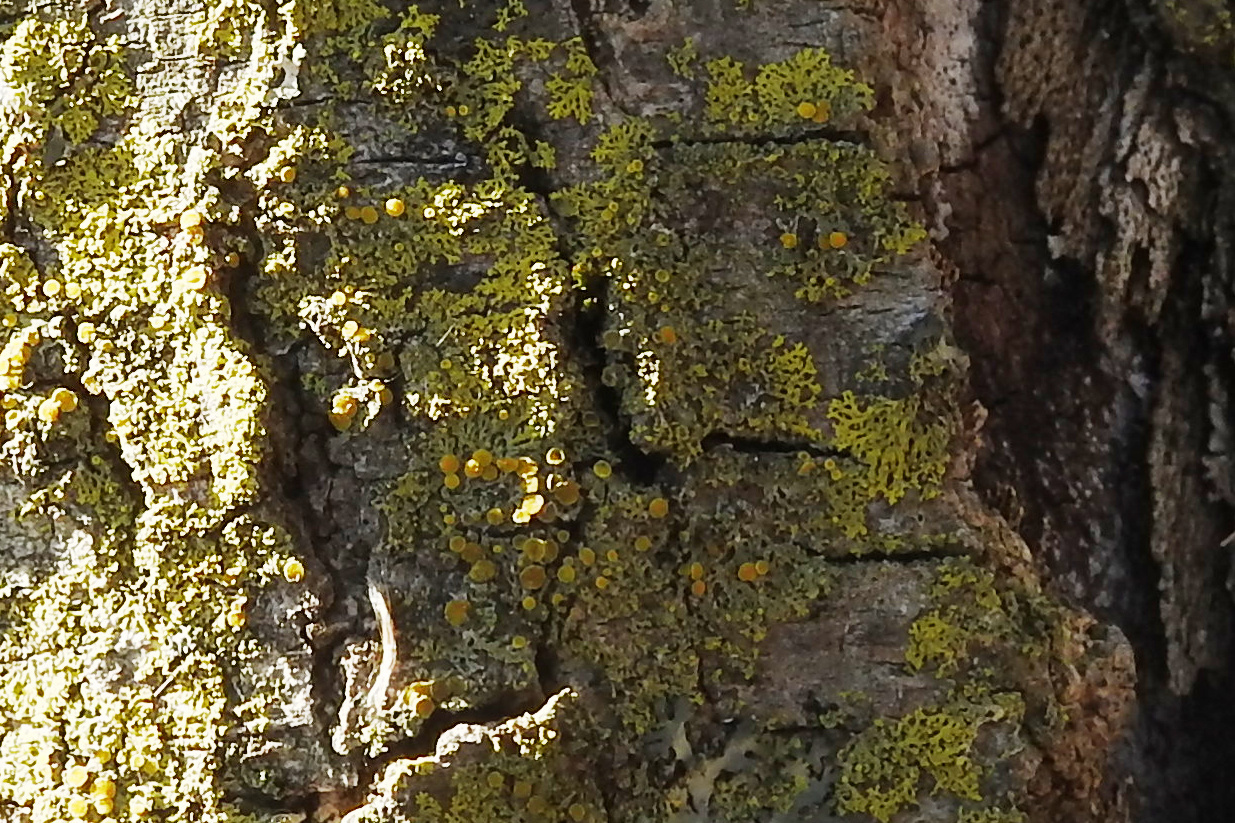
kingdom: Fungi
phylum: Ascomycota
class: Candelariomycetes
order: Candelariales
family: Candelariaceae
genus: Candelaria
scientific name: Candelaria fibrosa
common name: Fringed candleflame lichen
